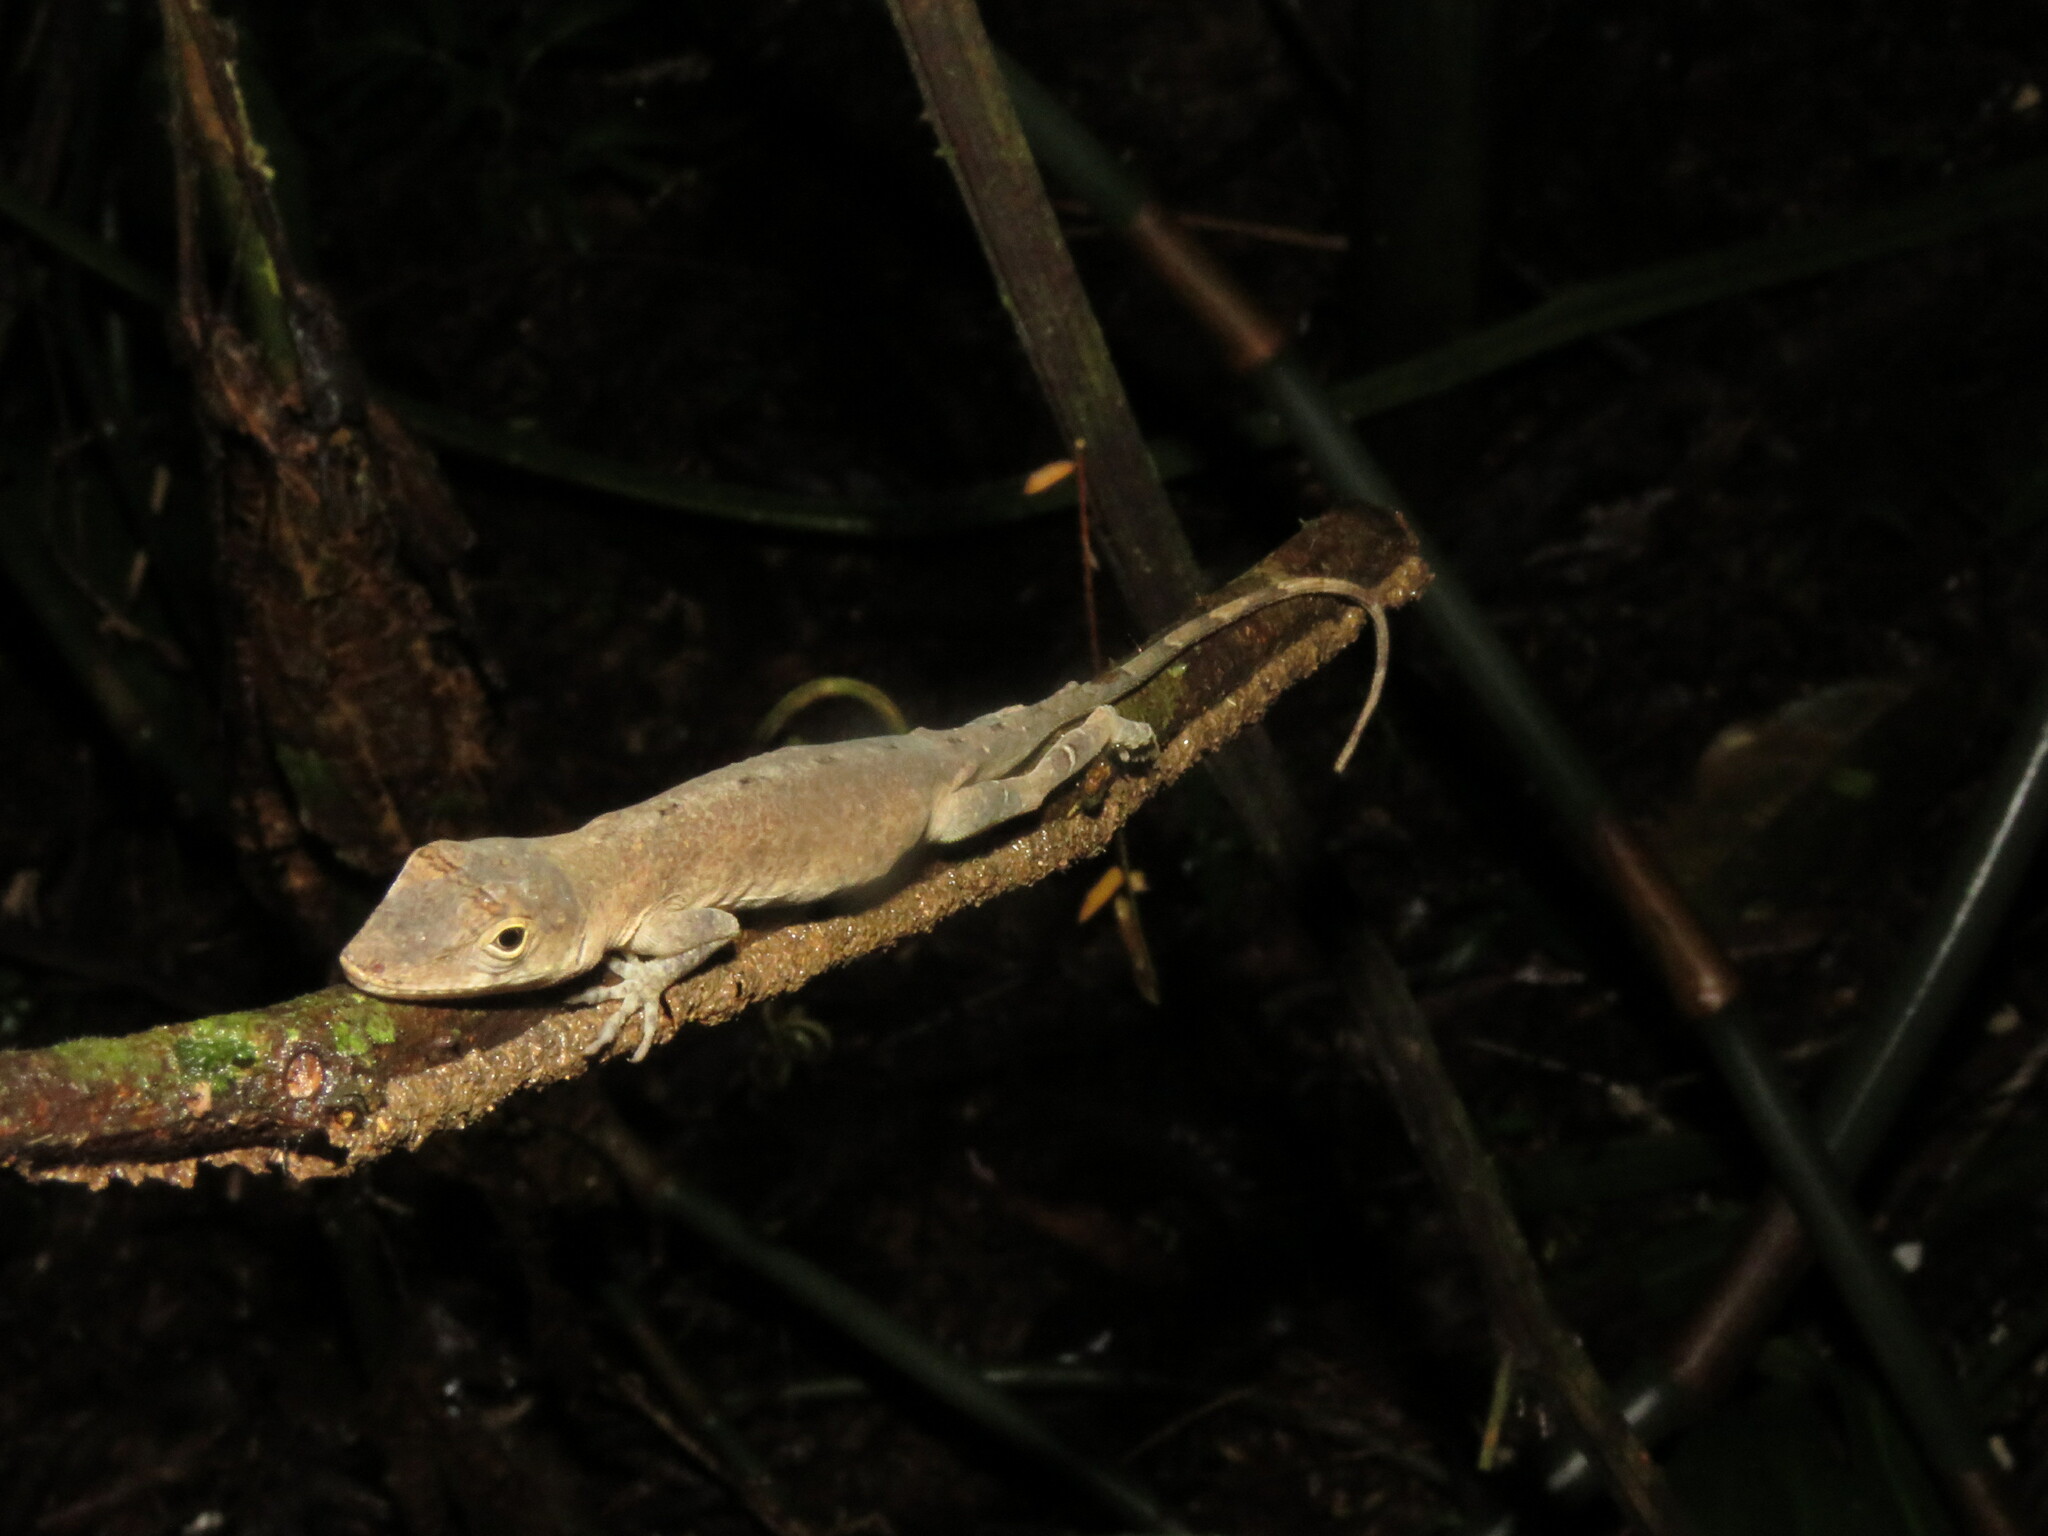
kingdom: Animalia
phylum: Chordata
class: Squamata
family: Dactyloidae
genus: Anolis
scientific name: Anolis fuscoauratus
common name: Brown-eared anole
